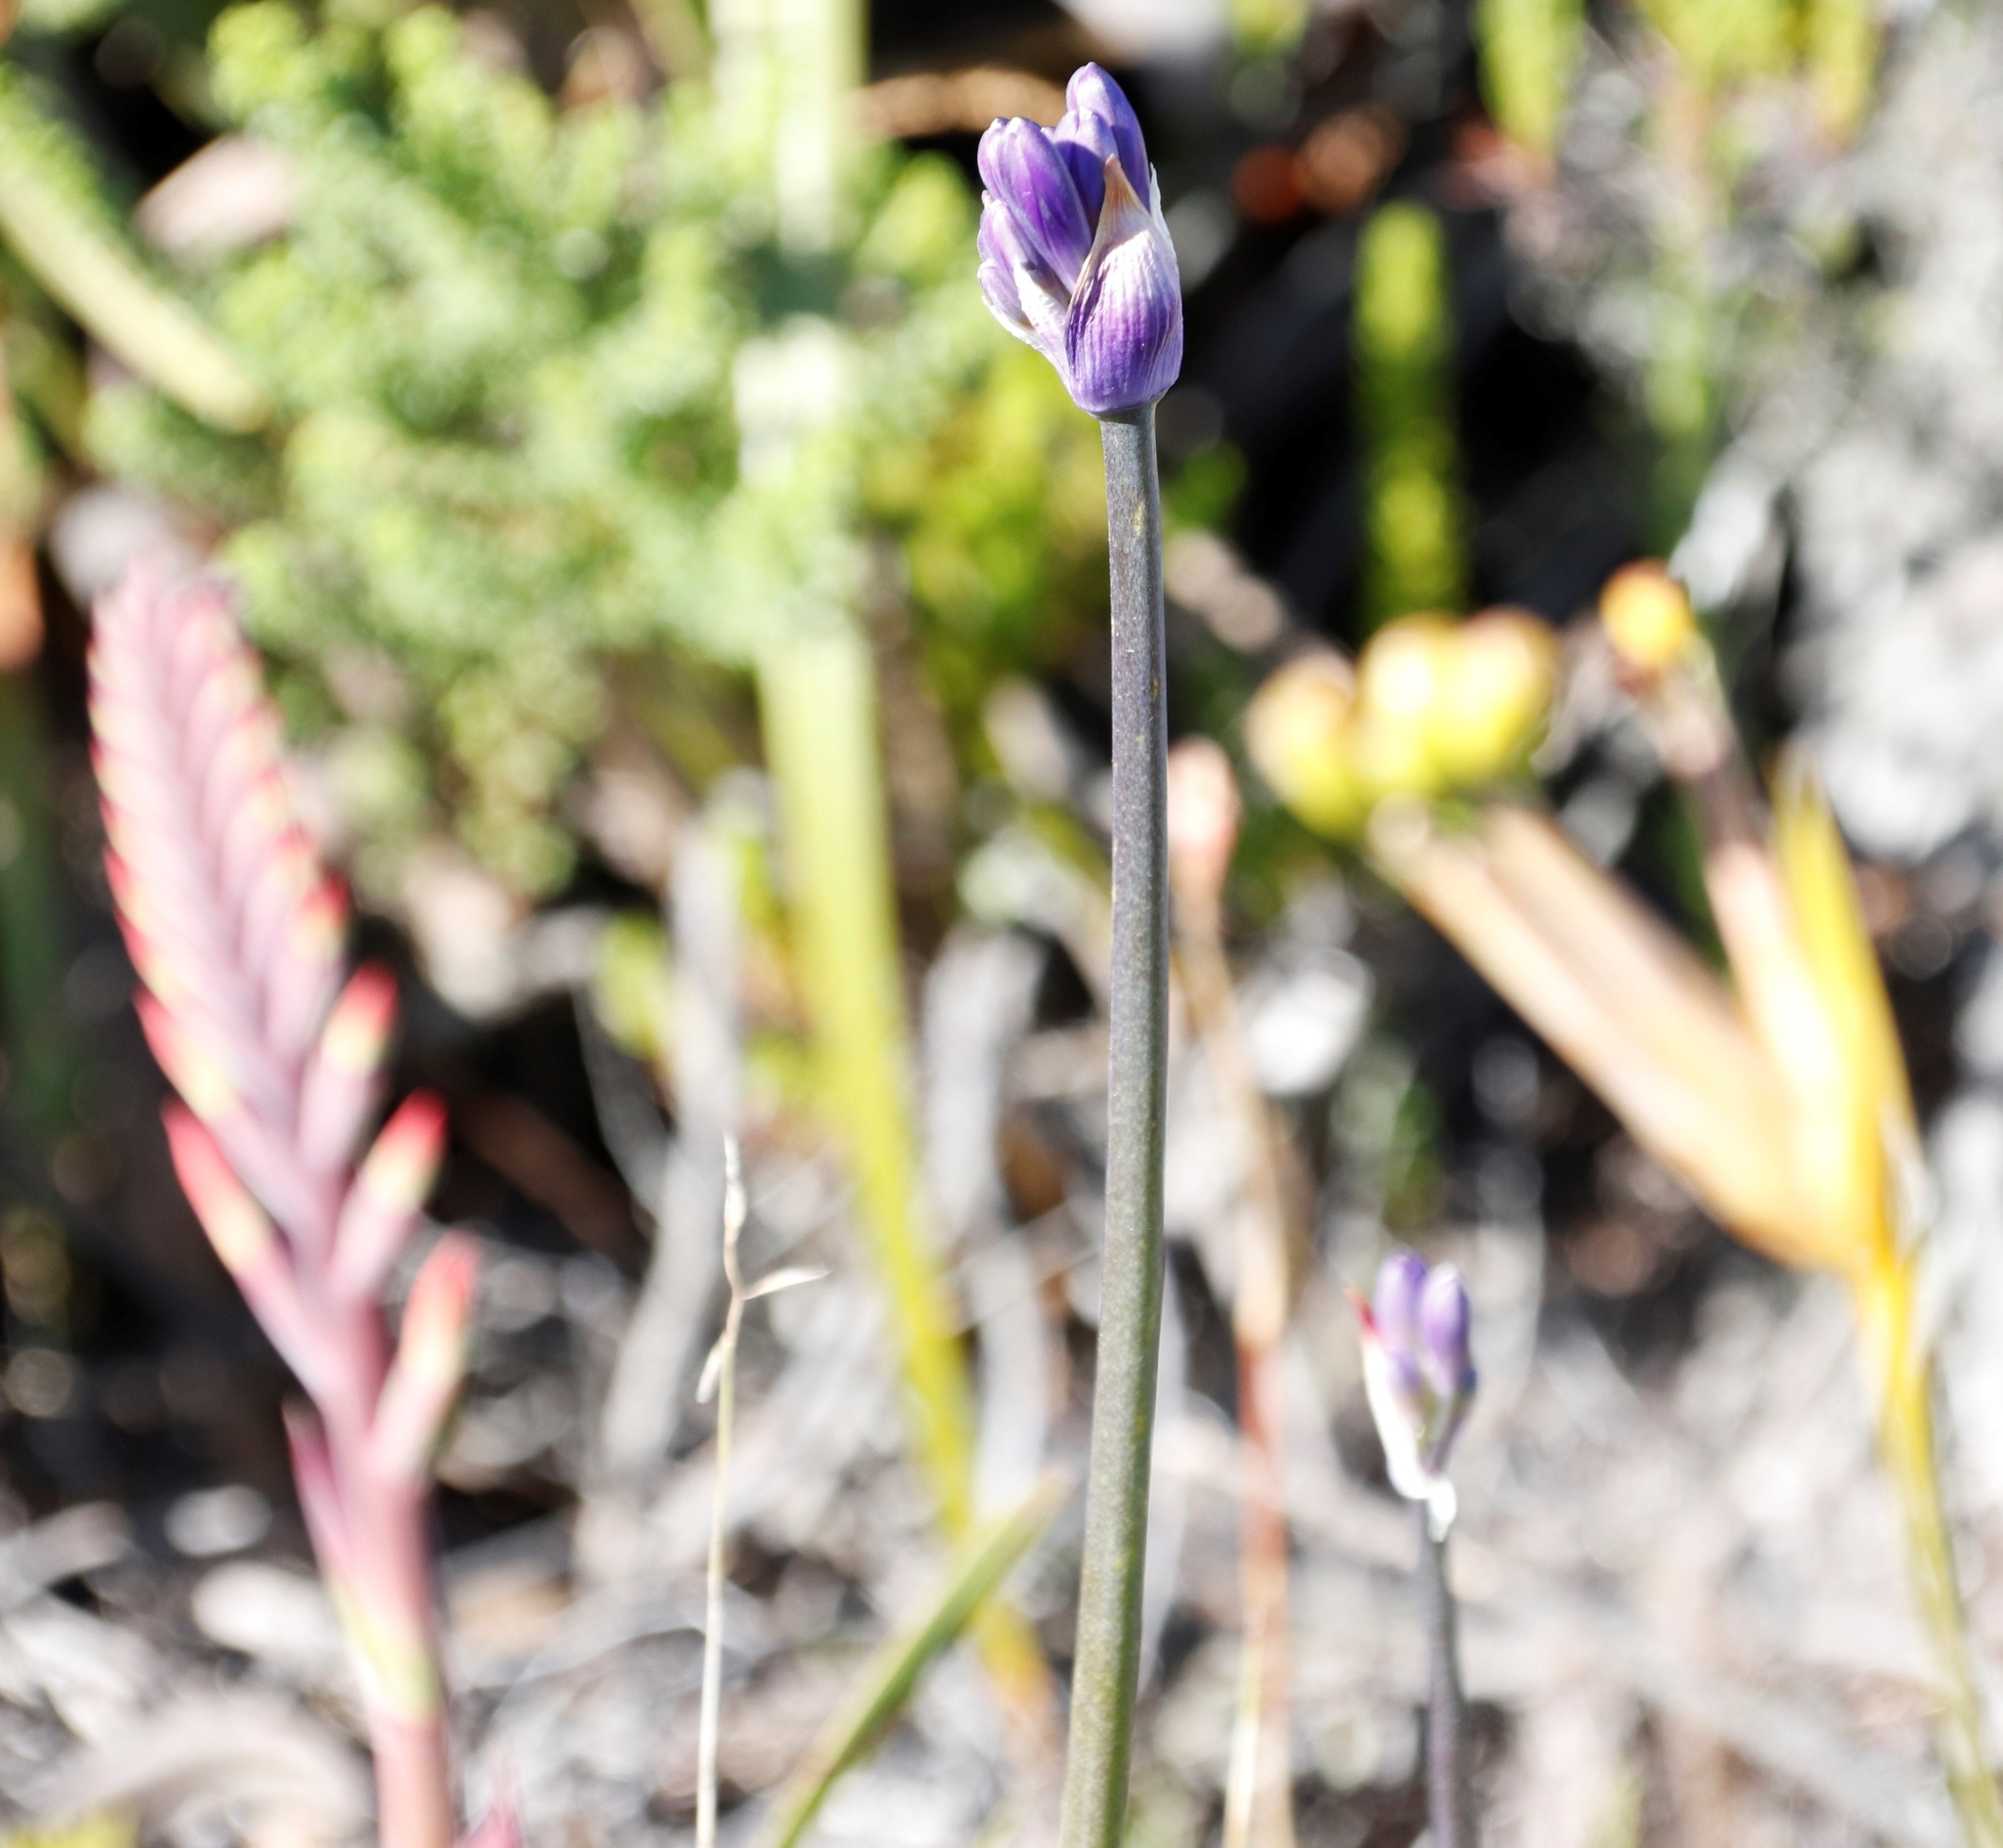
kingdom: Plantae
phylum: Tracheophyta
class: Liliopsida
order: Asparagales
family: Amaryllidaceae
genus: Agapanthus
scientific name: Agapanthus africanus
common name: Lily-of-the-nile
